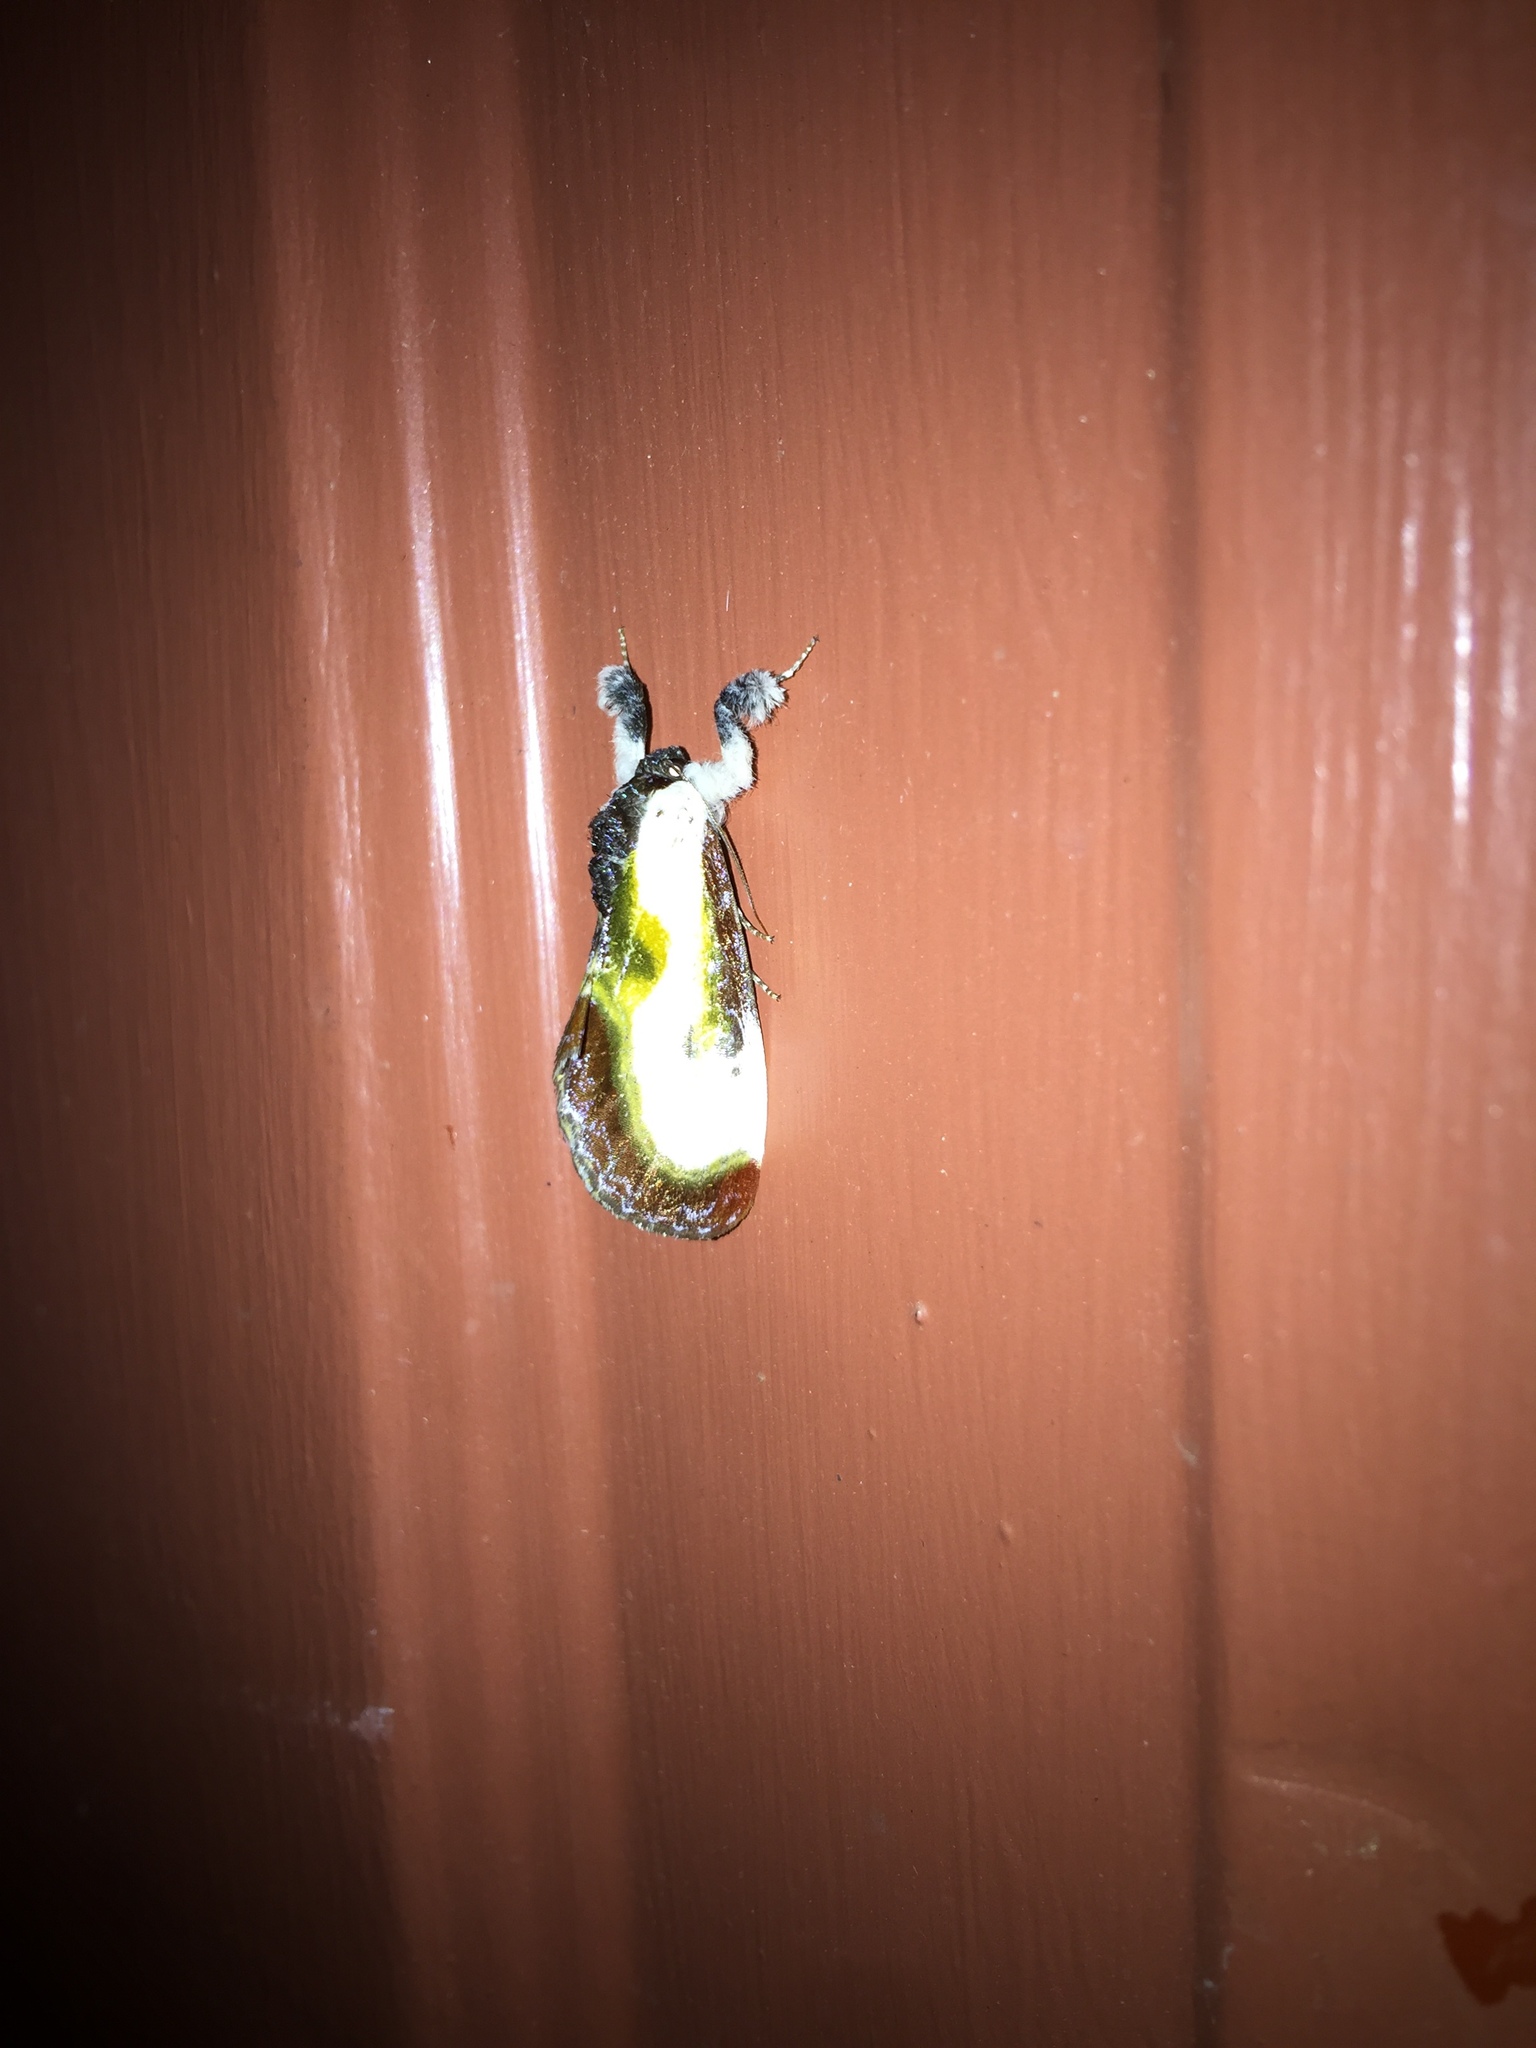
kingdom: Animalia
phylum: Arthropoda
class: Insecta
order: Lepidoptera
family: Noctuidae
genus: Eudryas
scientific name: Eudryas grata
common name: Beautiful wood-nymph
